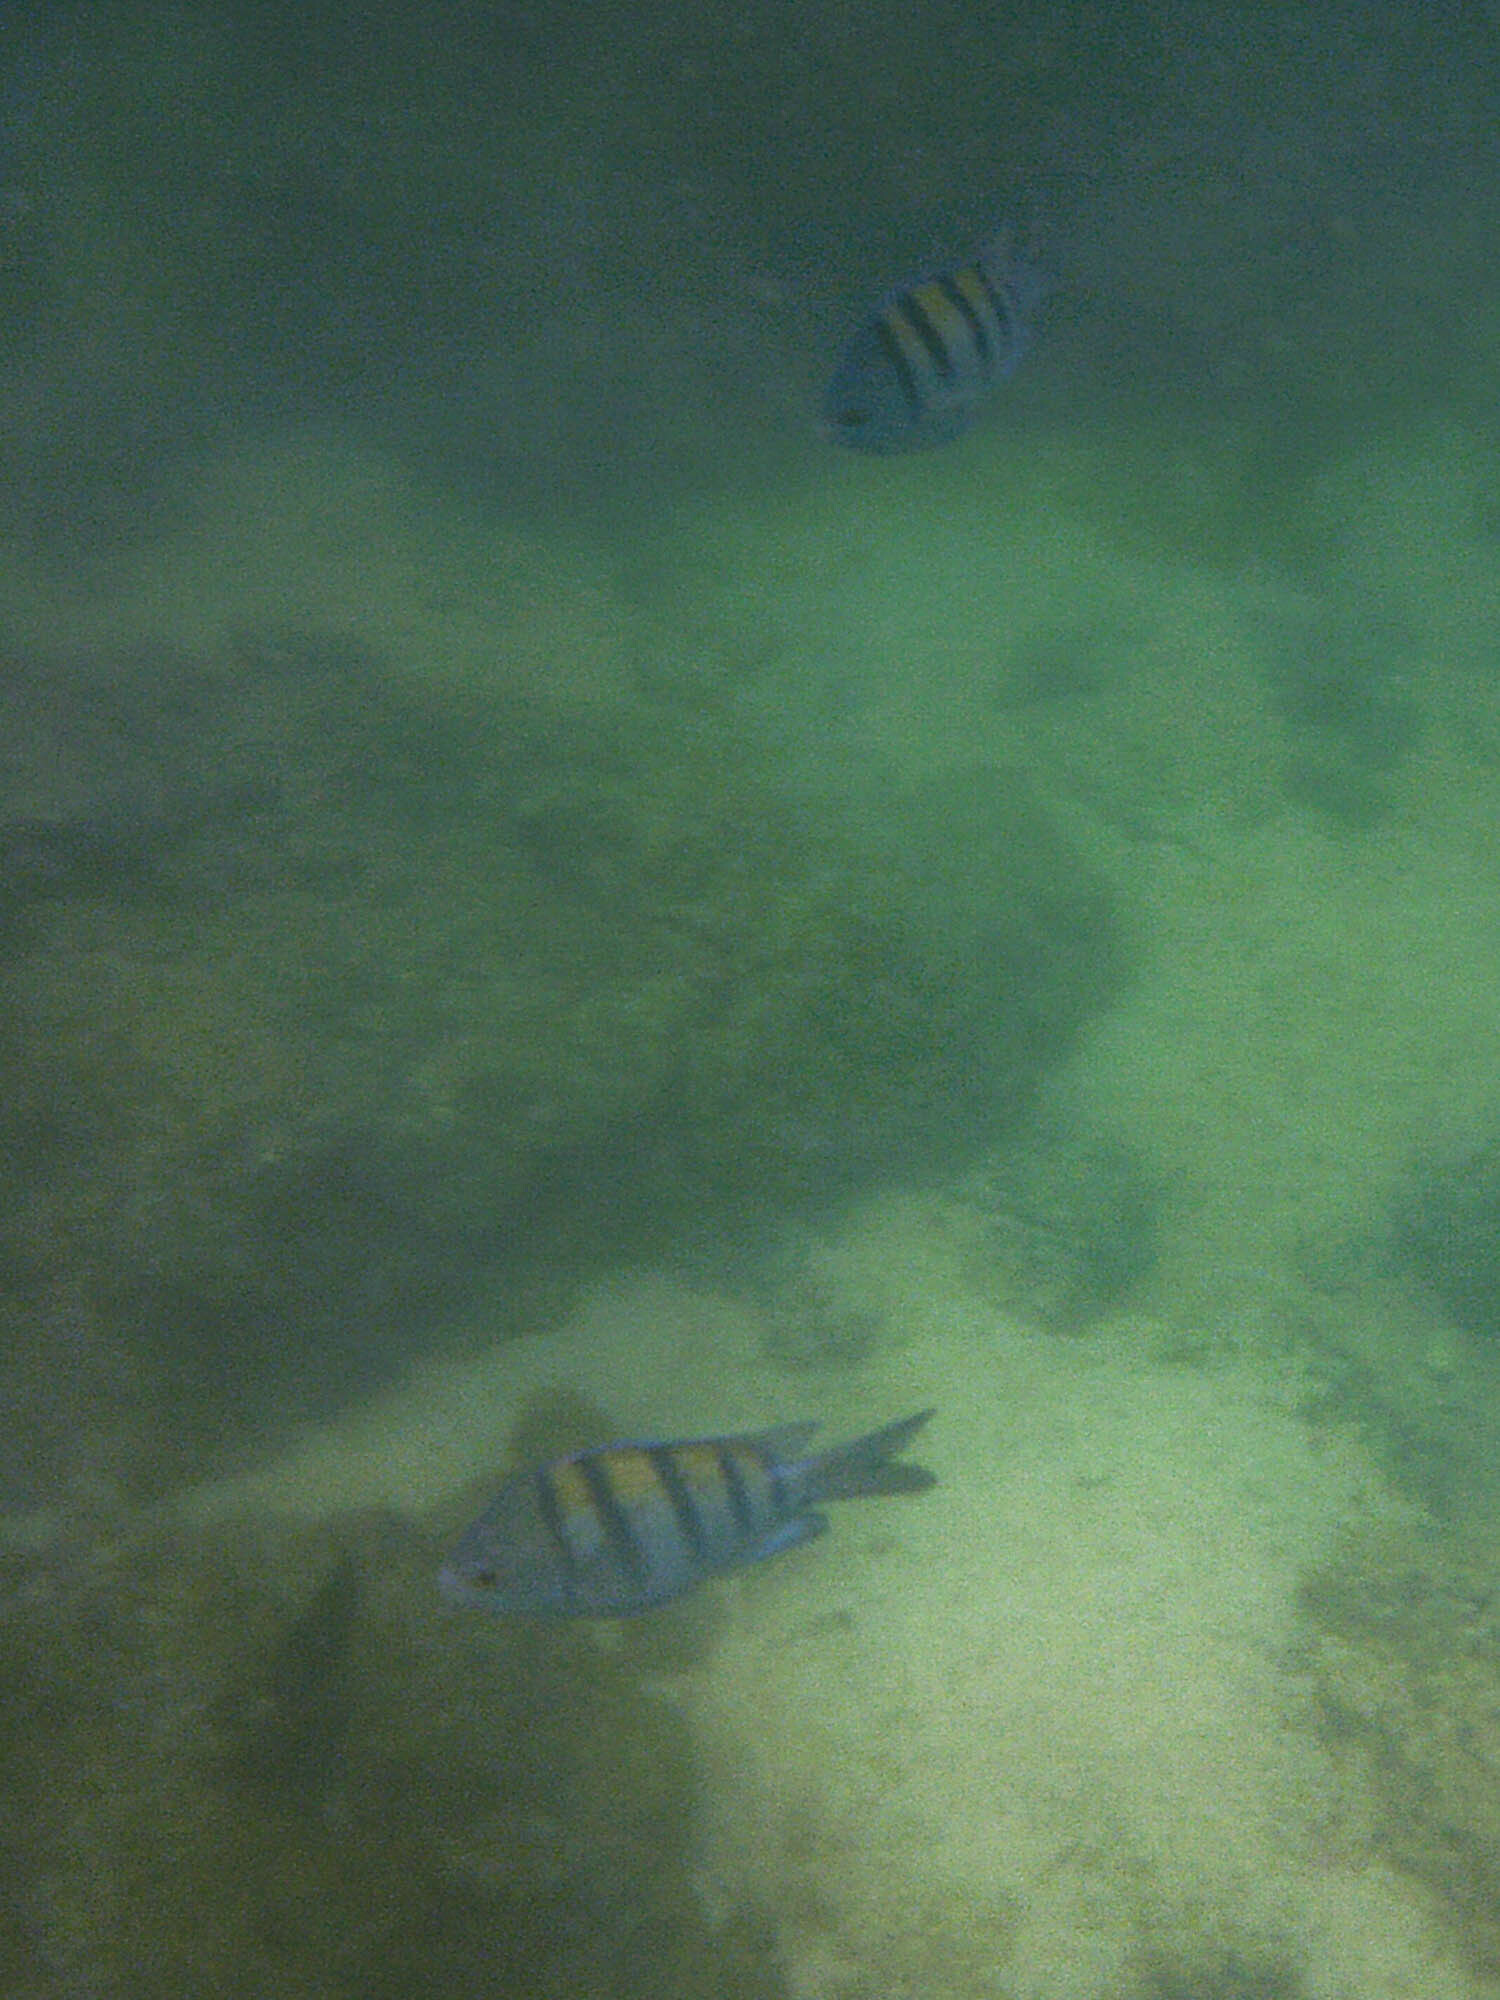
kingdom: Animalia
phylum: Chordata
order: Perciformes
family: Pomacentridae
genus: Abudefduf
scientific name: Abudefduf troschelii
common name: Panamic sergeant major
